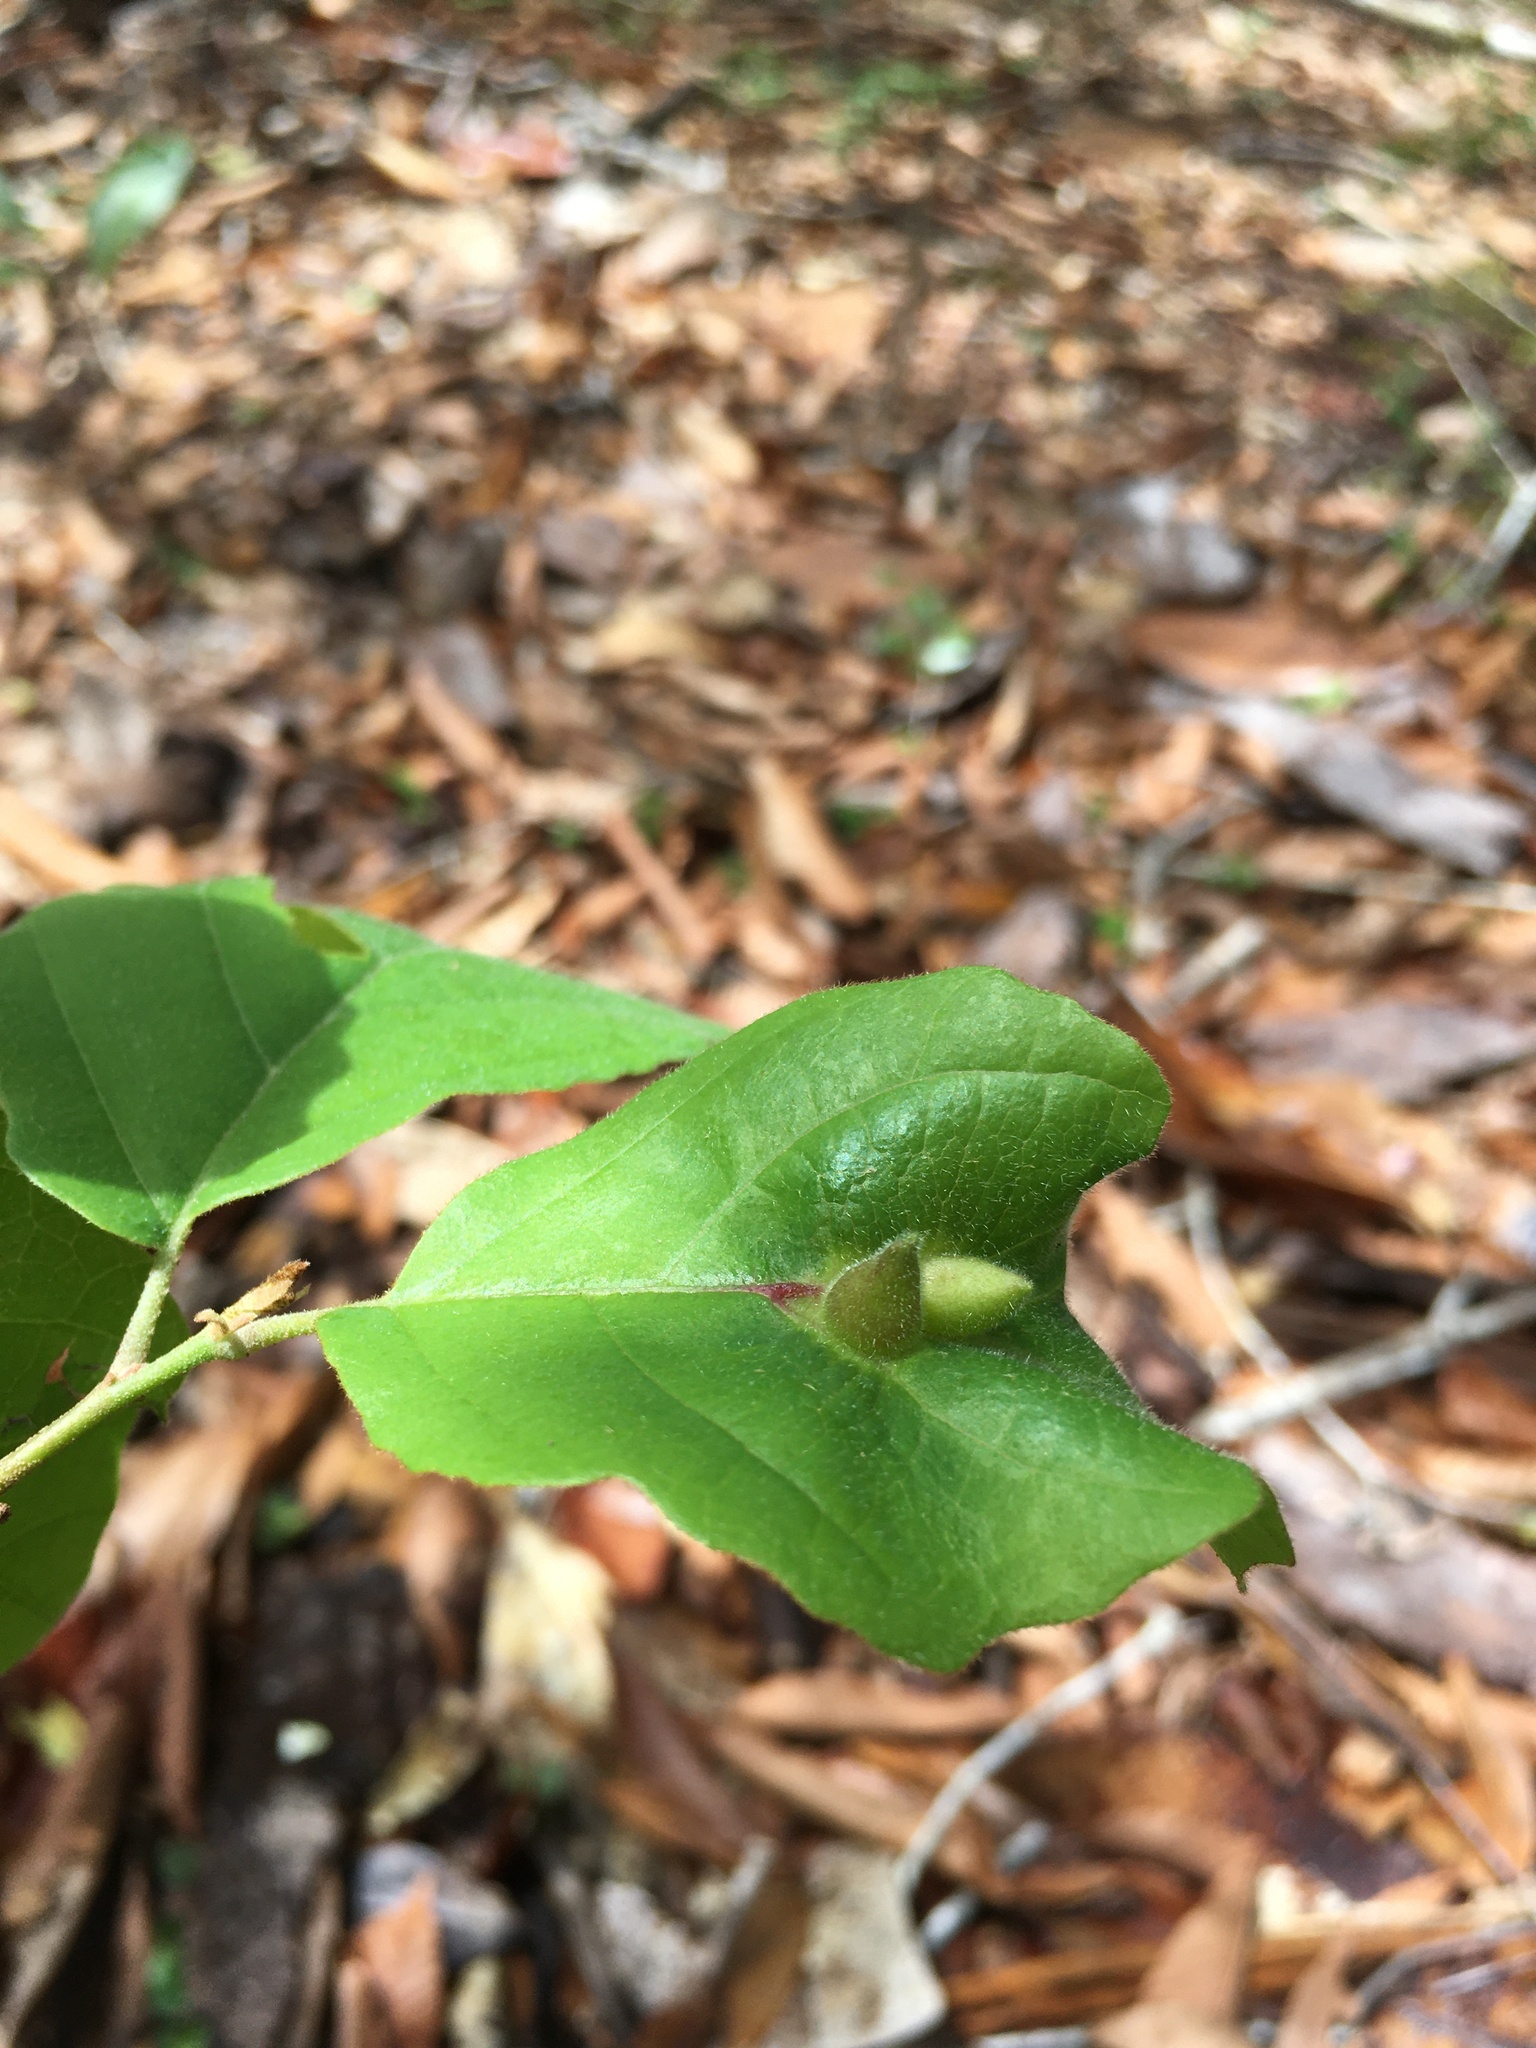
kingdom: Animalia
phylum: Arthropoda
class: Insecta
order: Hemiptera
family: Aphididae
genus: Hormaphis
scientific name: Hormaphis hamamelidis
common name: Witch-hazel cone gall aphid
